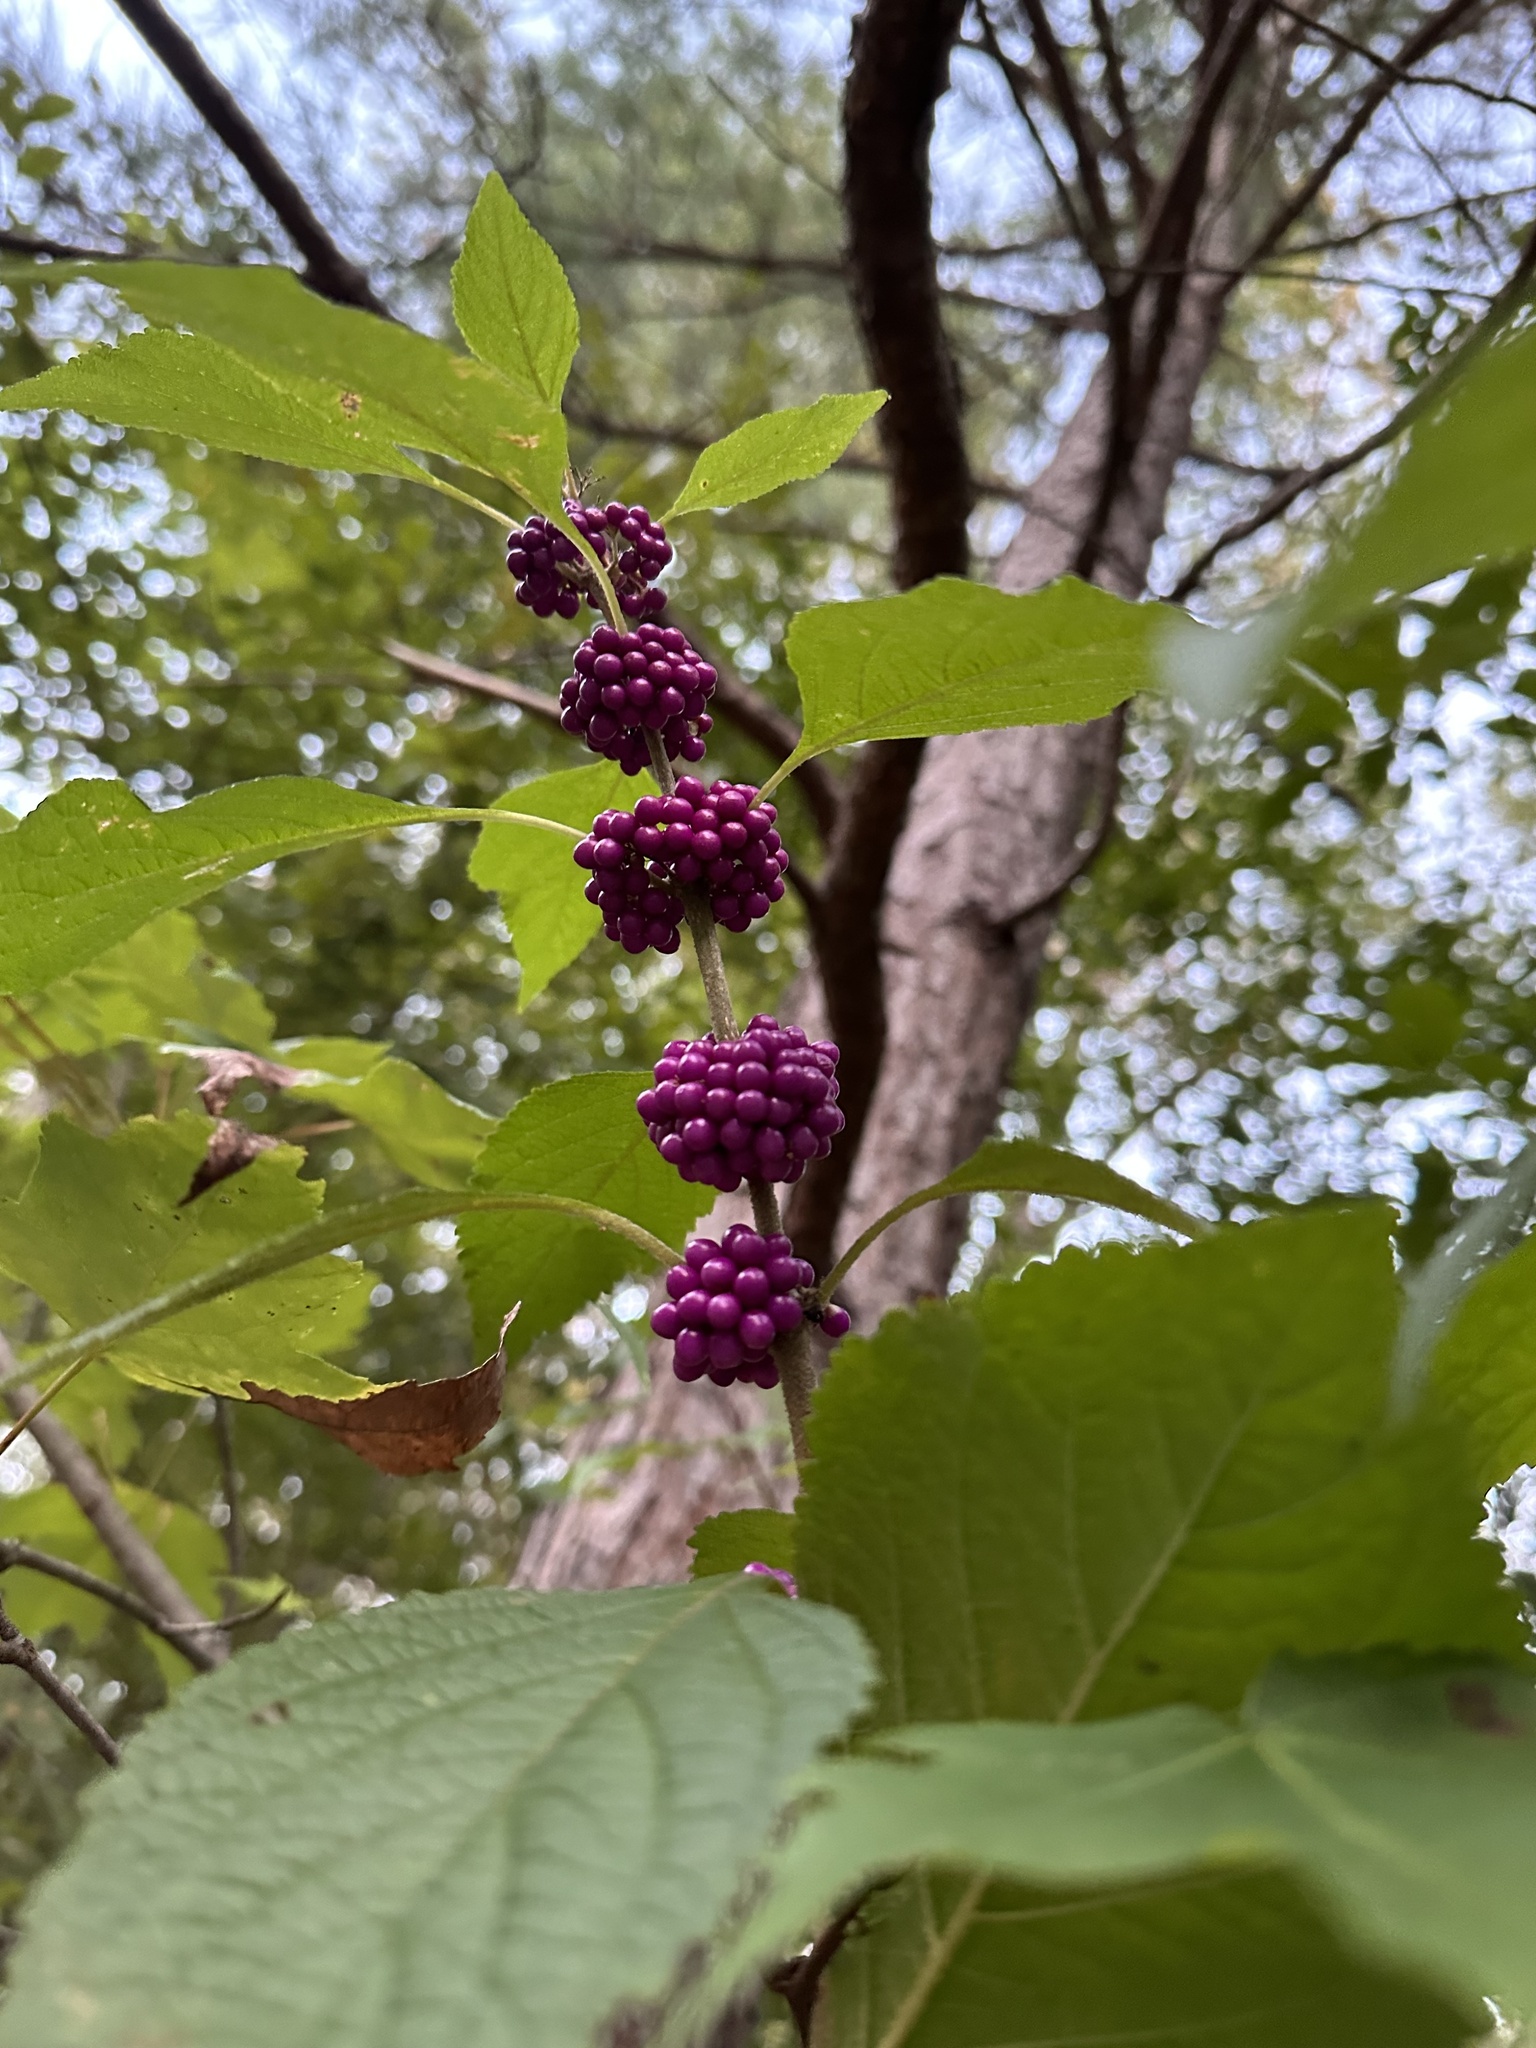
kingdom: Plantae
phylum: Tracheophyta
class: Magnoliopsida
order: Lamiales
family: Lamiaceae
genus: Callicarpa
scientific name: Callicarpa americana
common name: American beautyberry
